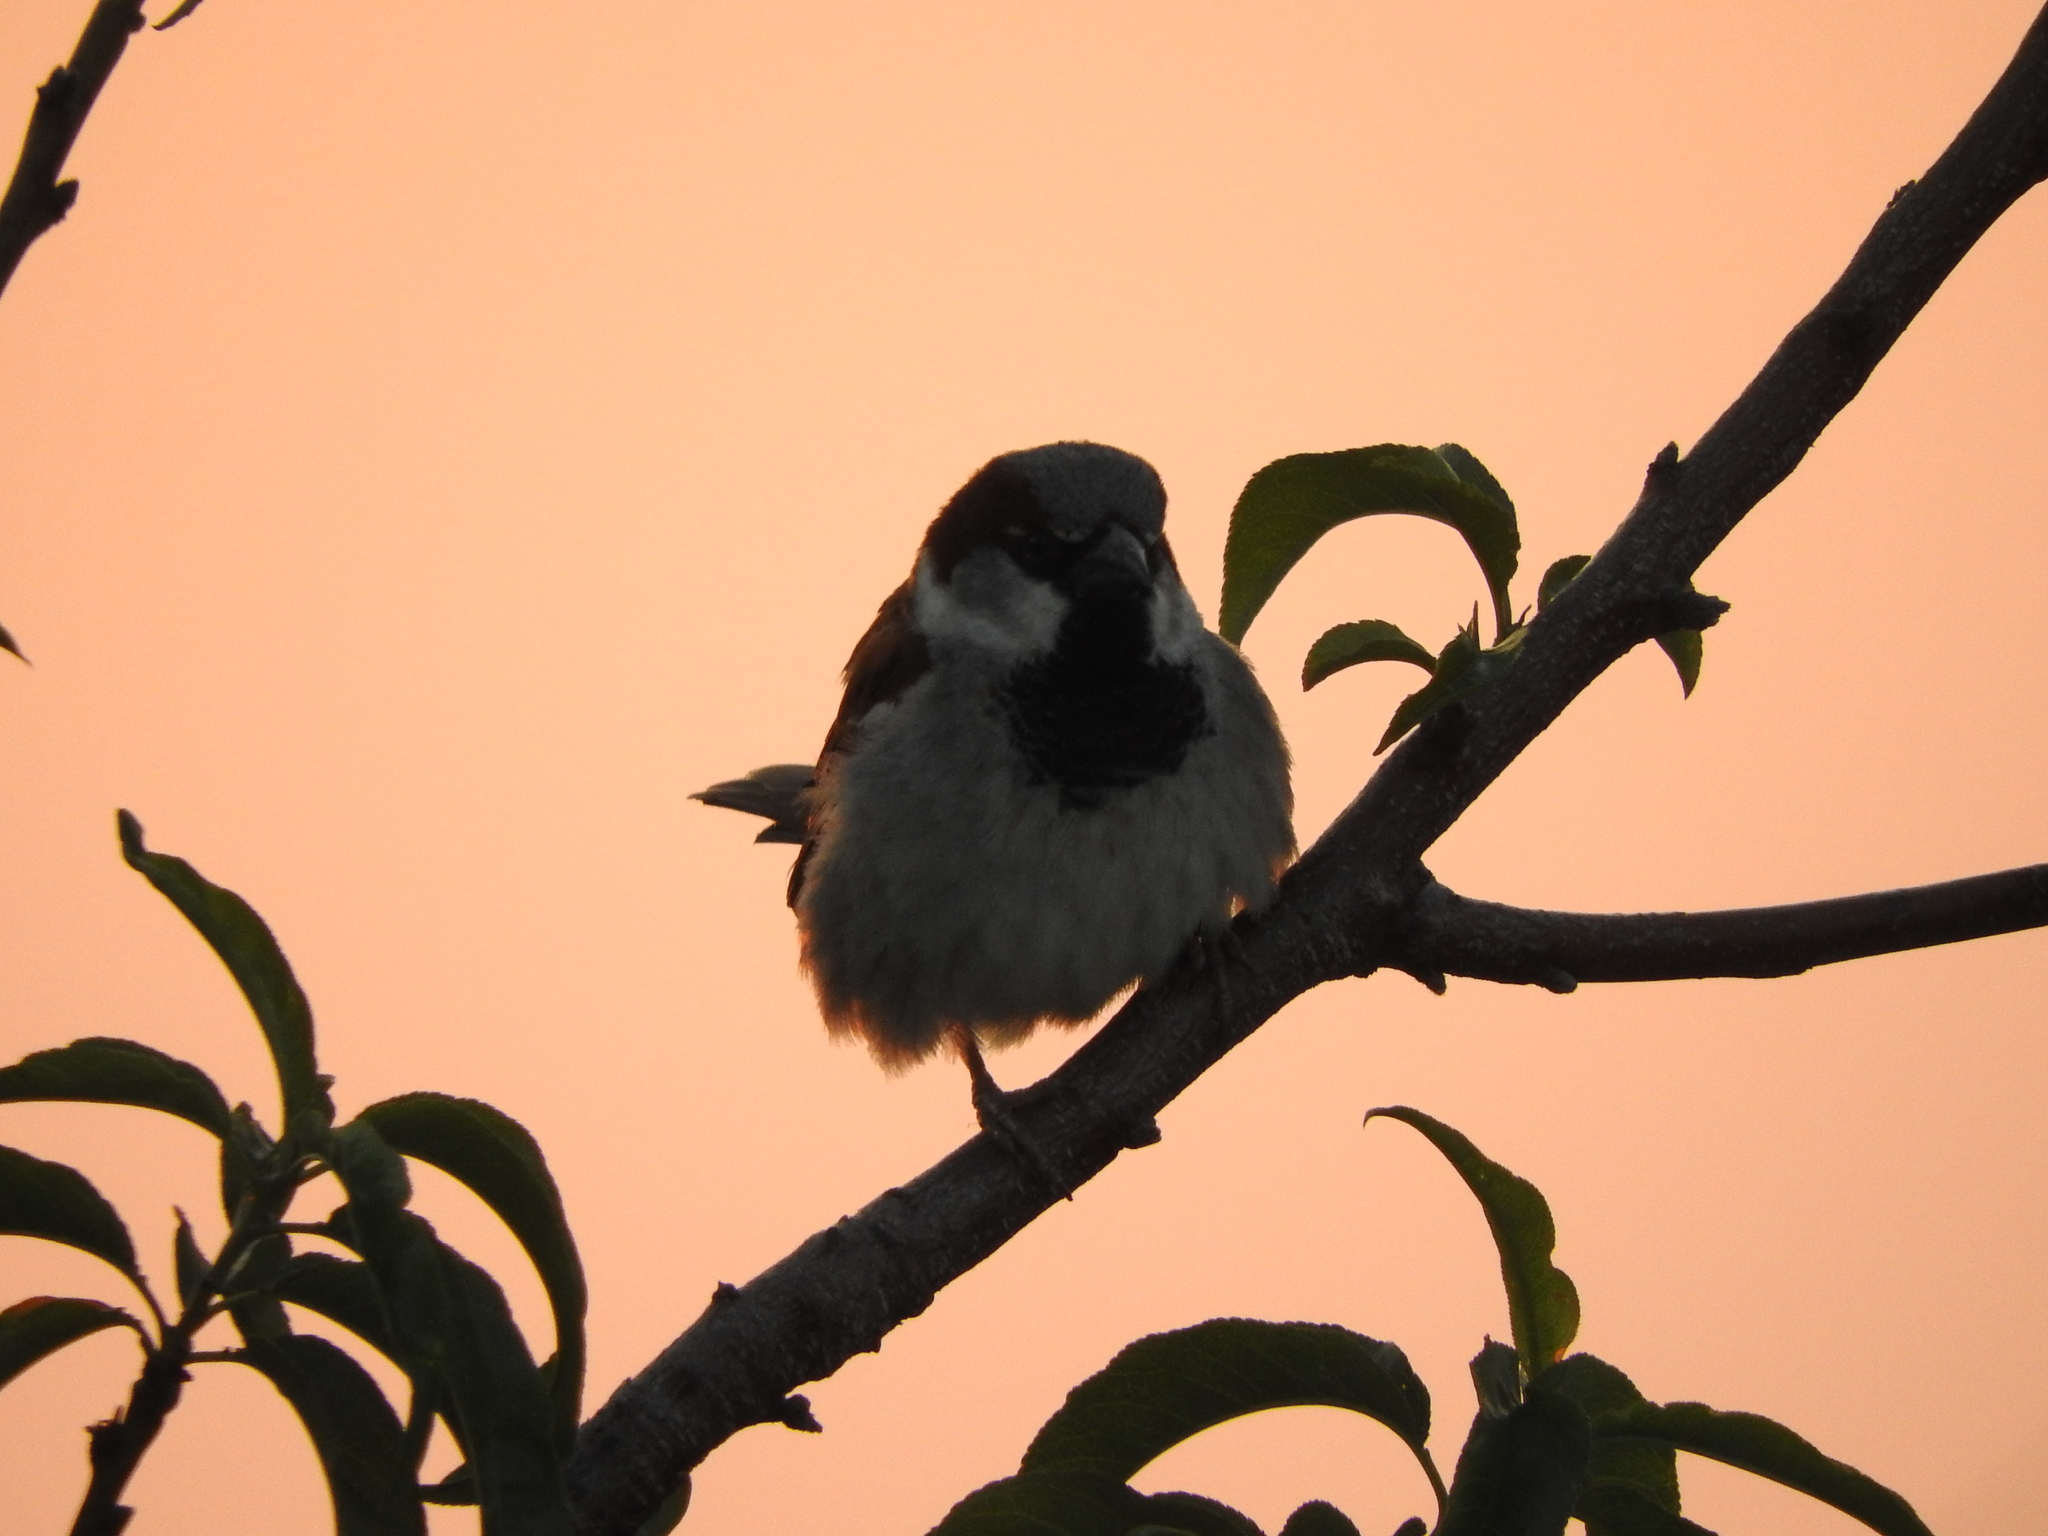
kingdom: Animalia
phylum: Chordata
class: Aves
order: Passeriformes
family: Passeridae
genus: Passer
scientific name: Passer domesticus
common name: House sparrow
